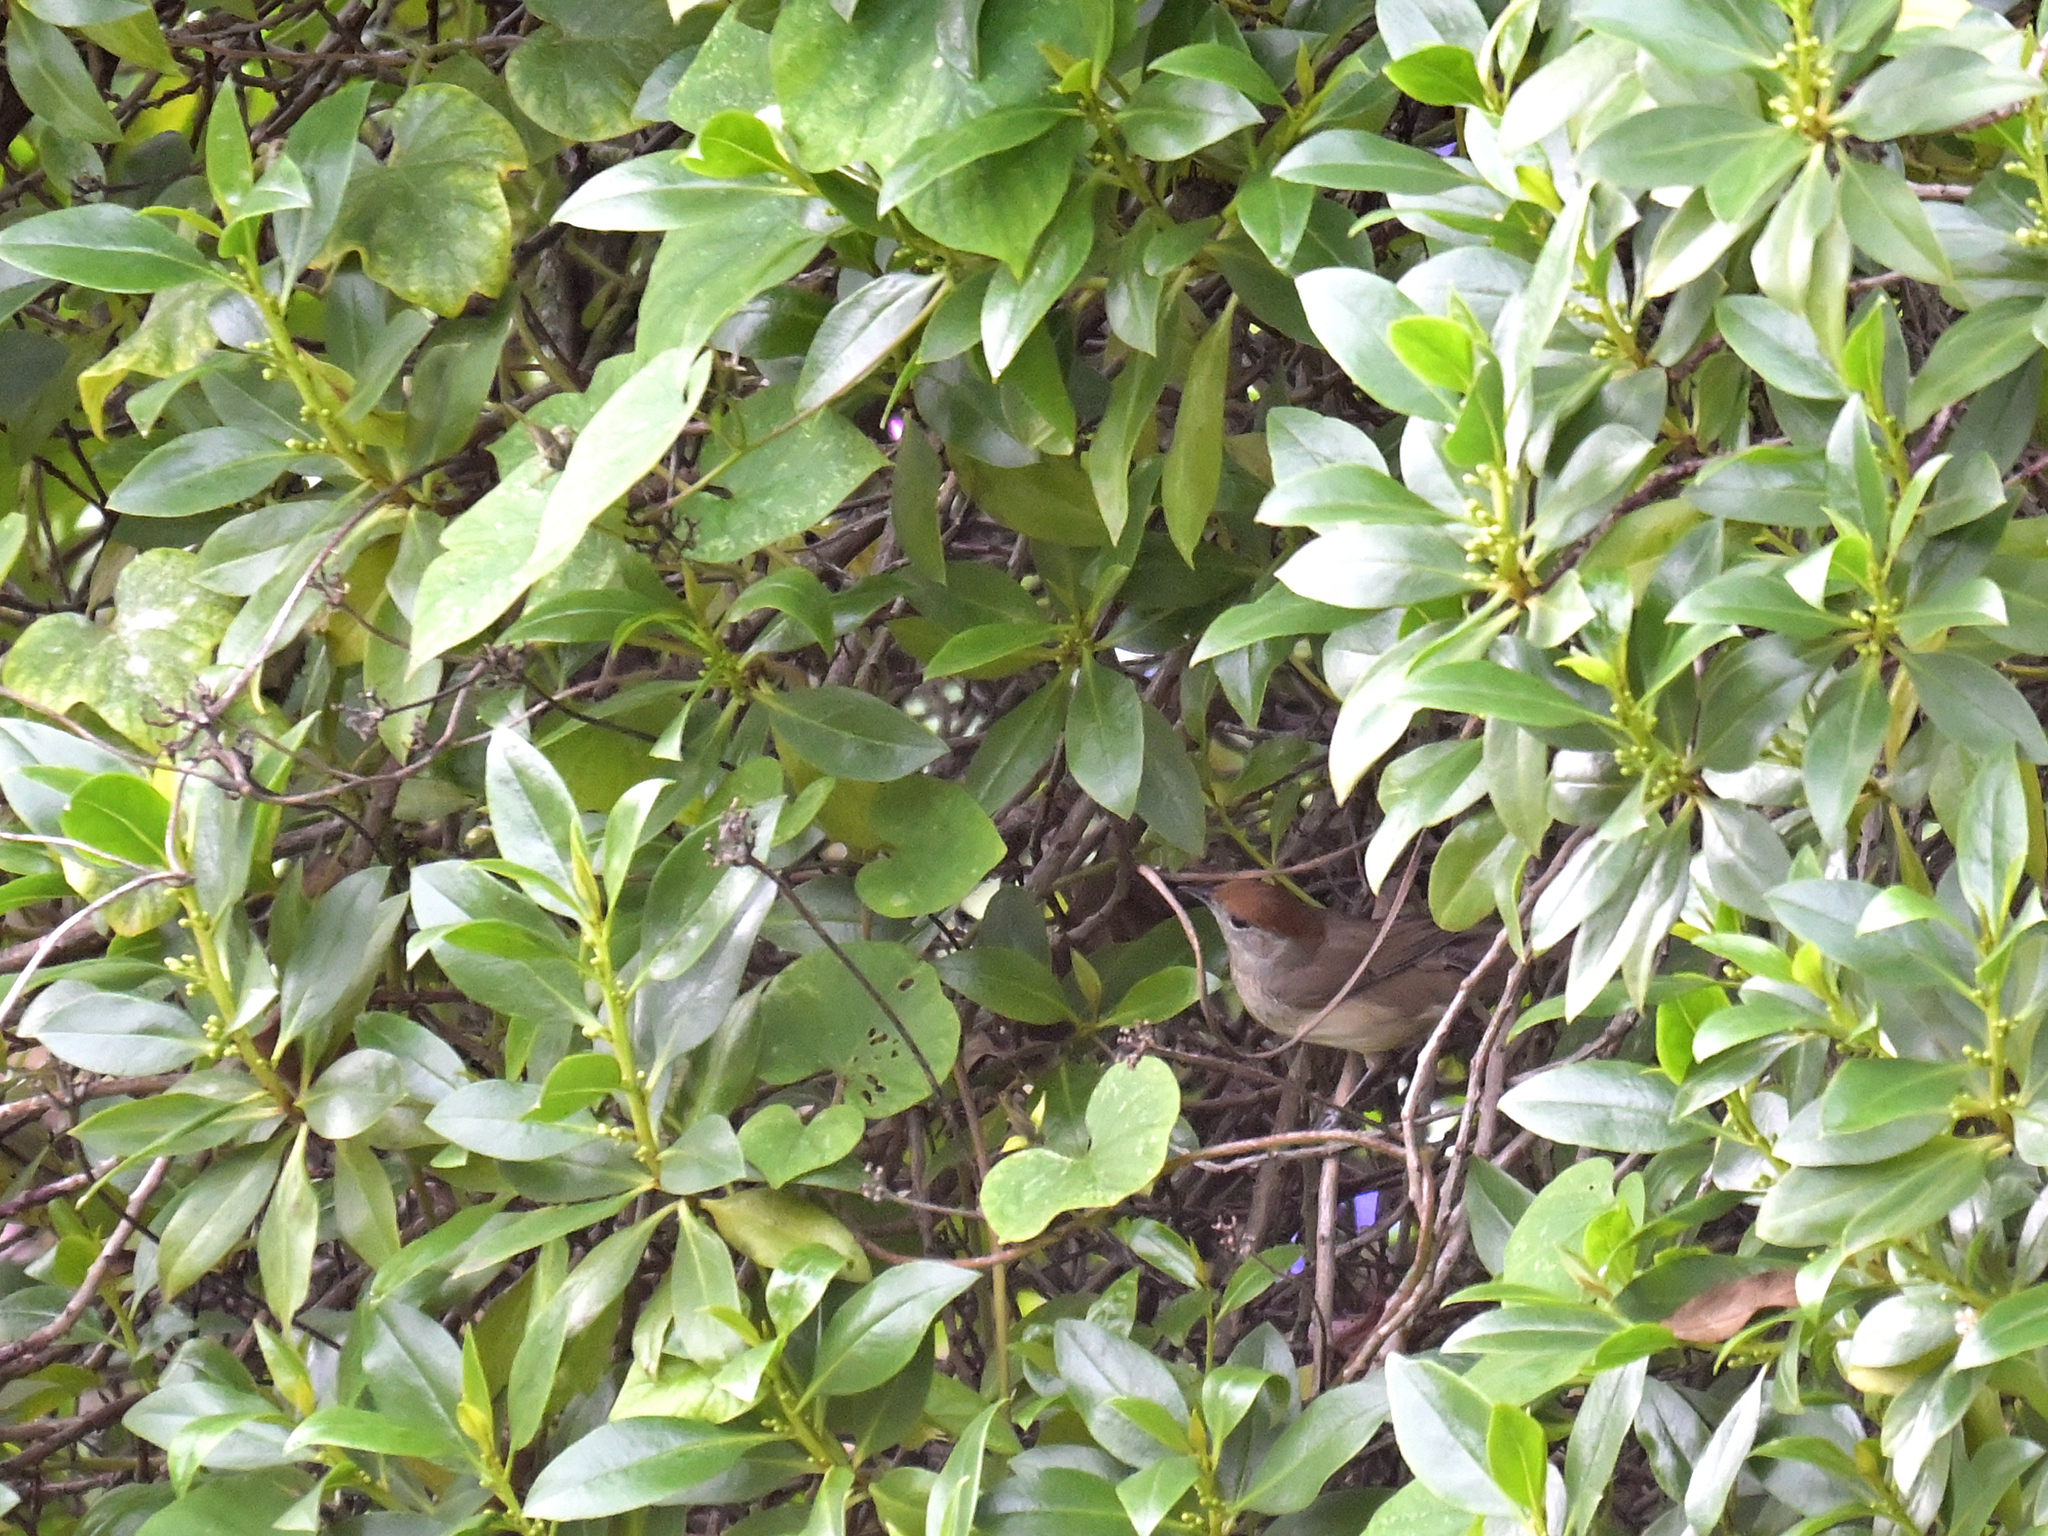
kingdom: Animalia
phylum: Chordata
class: Aves
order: Passeriformes
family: Sylviidae
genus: Sylvia
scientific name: Sylvia atricapilla
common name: Eurasian blackcap
